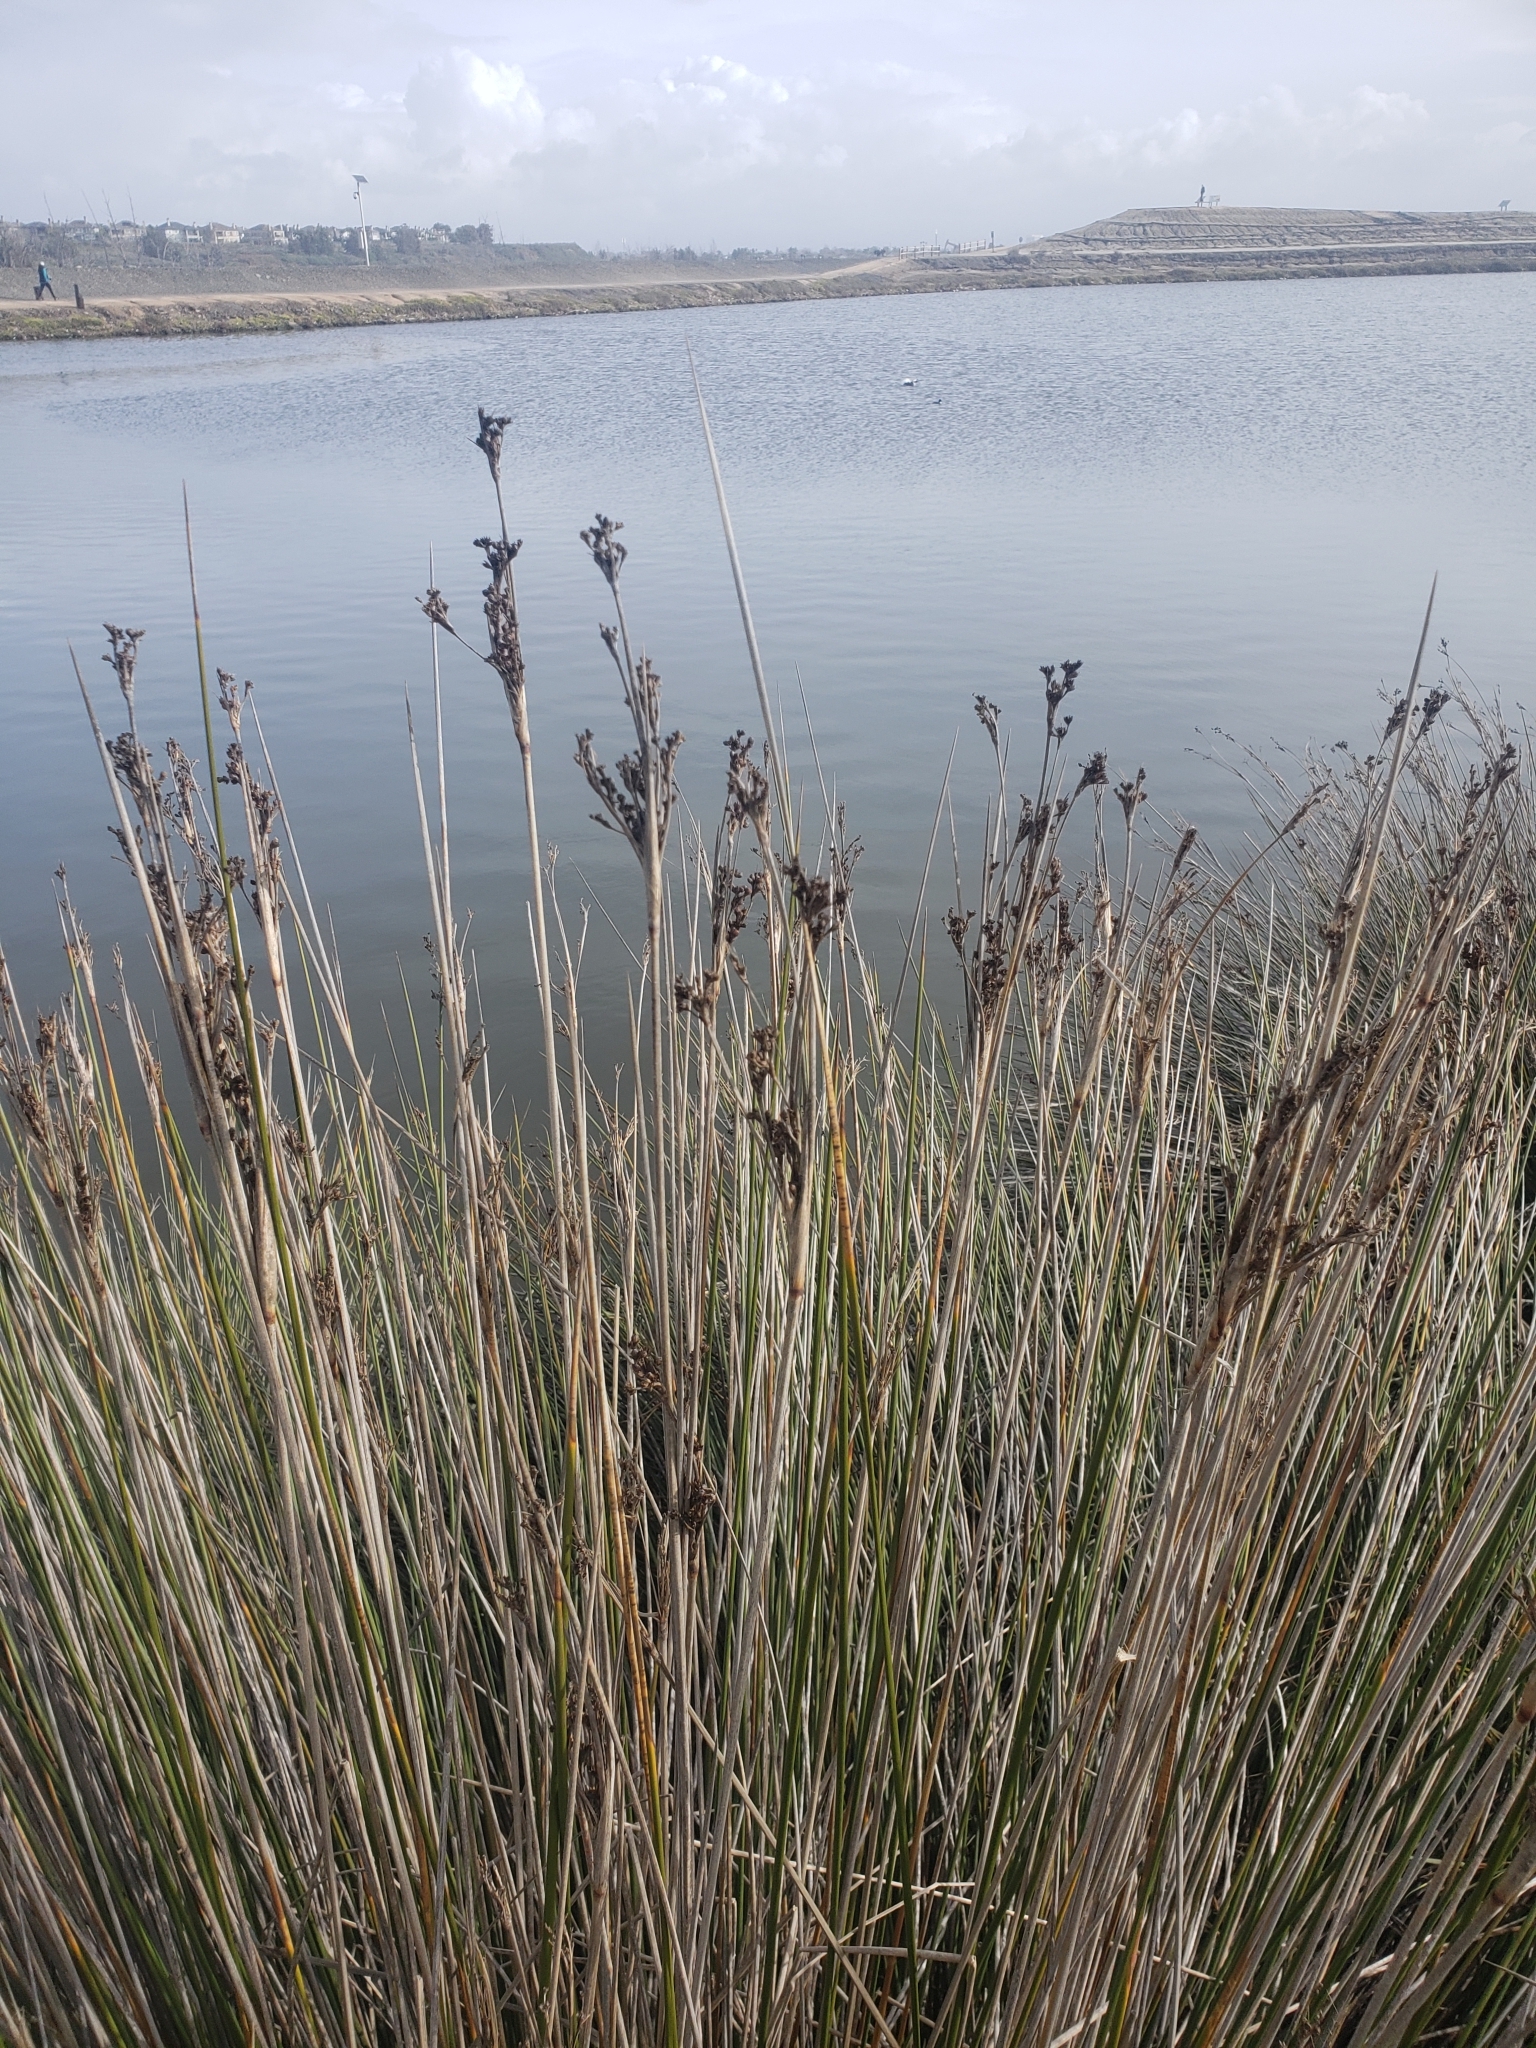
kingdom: Plantae
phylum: Tracheophyta
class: Liliopsida
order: Poales
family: Juncaceae
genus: Juncus
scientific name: Juncus acutus
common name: Sharp rush
